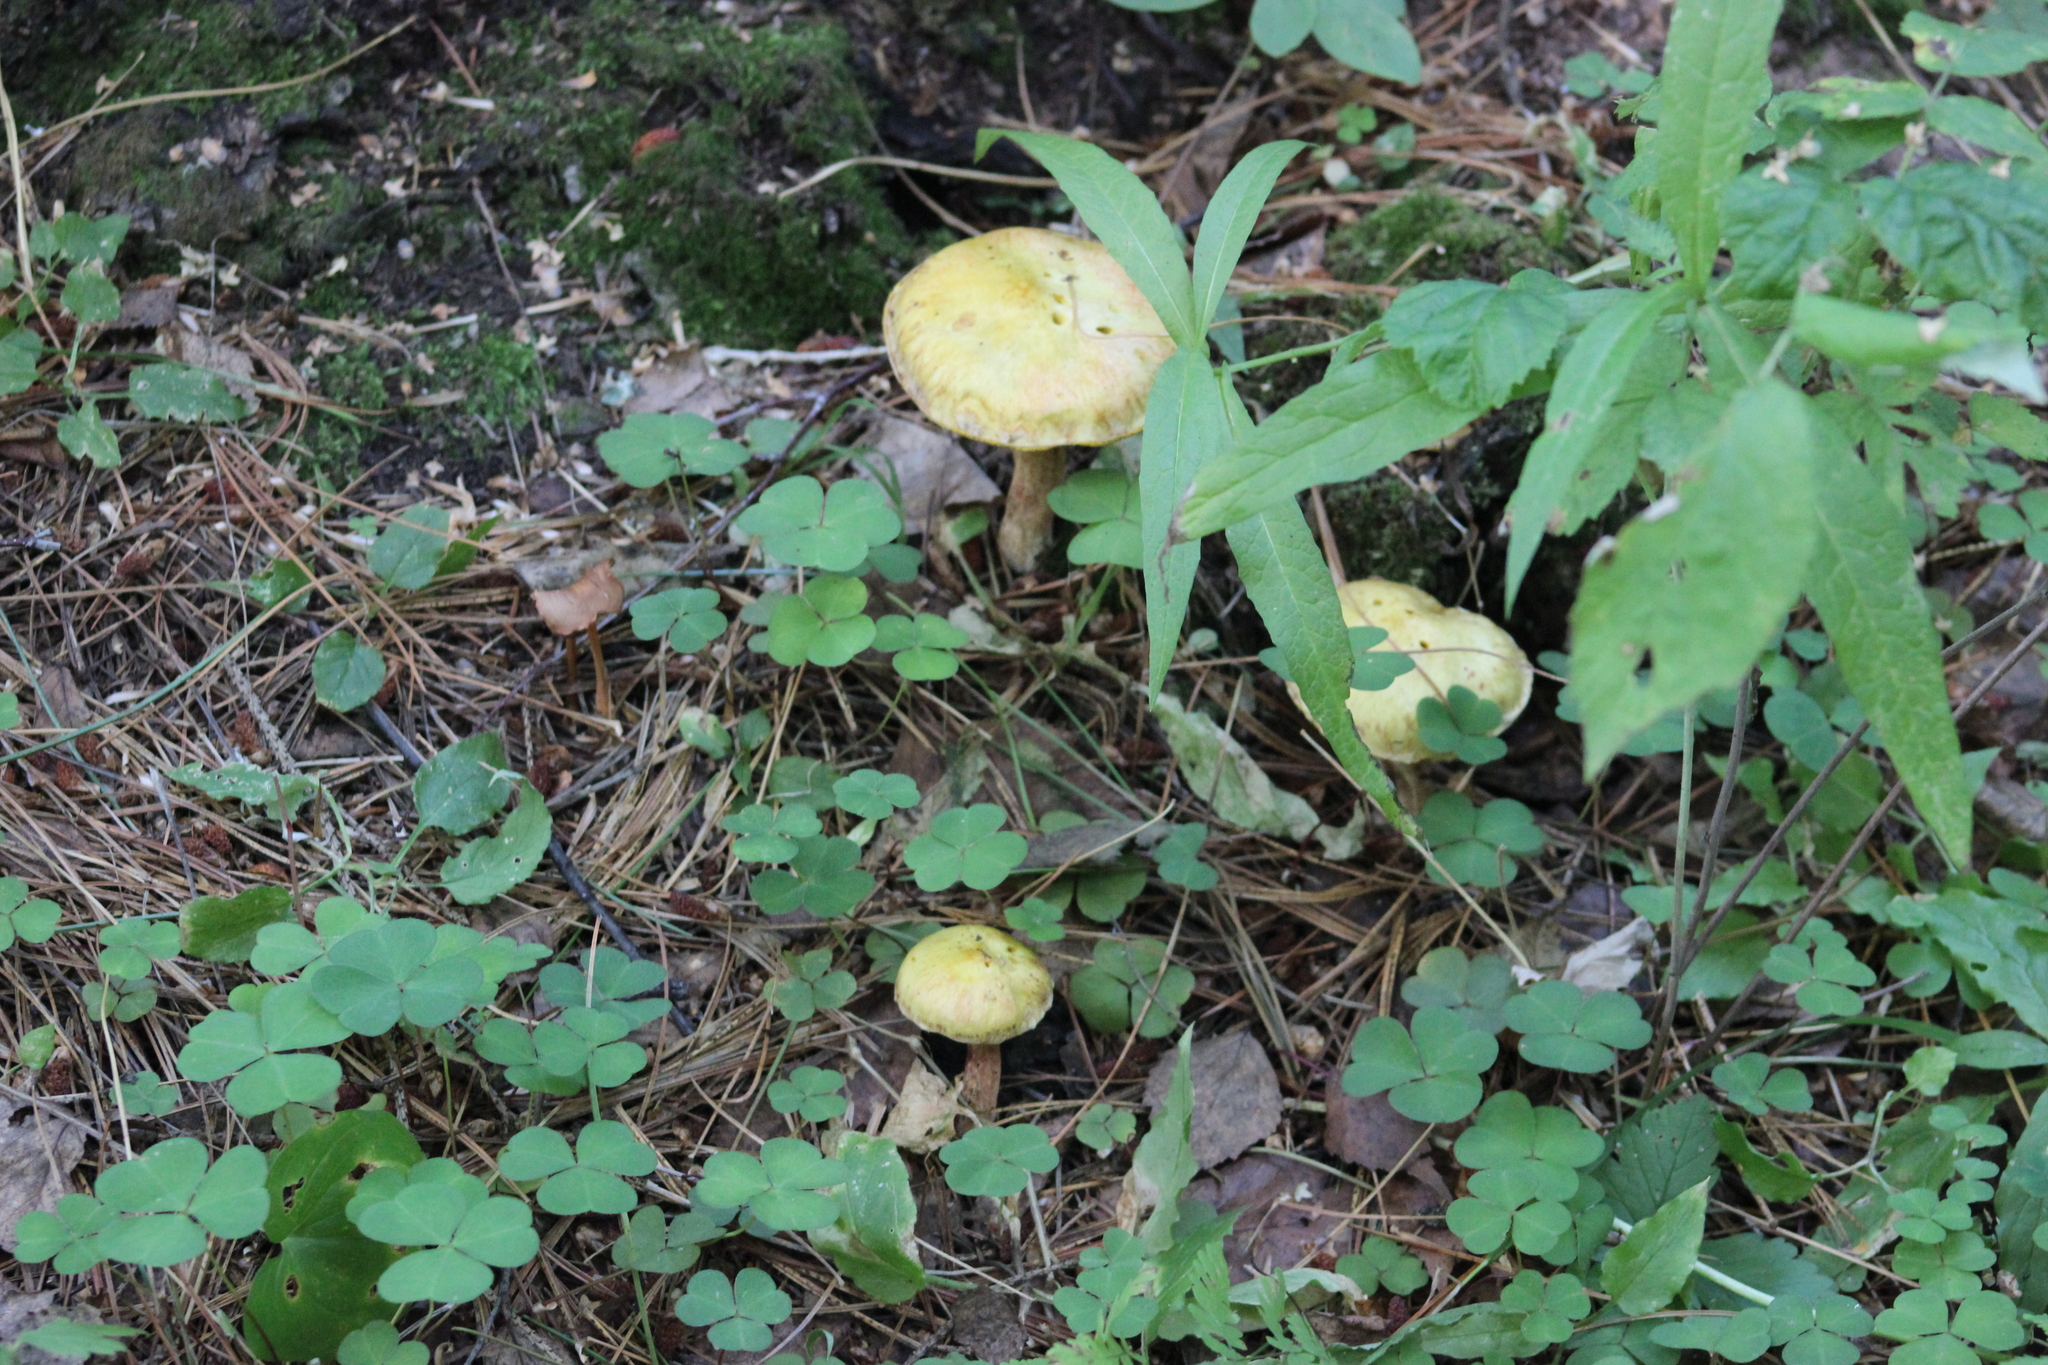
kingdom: Fungi
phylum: Basidiomycota
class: Agaricomycetes
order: Boletales
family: Suillaceae
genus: Suillus
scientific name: Suillus americanus
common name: Chicken fat mushroom
